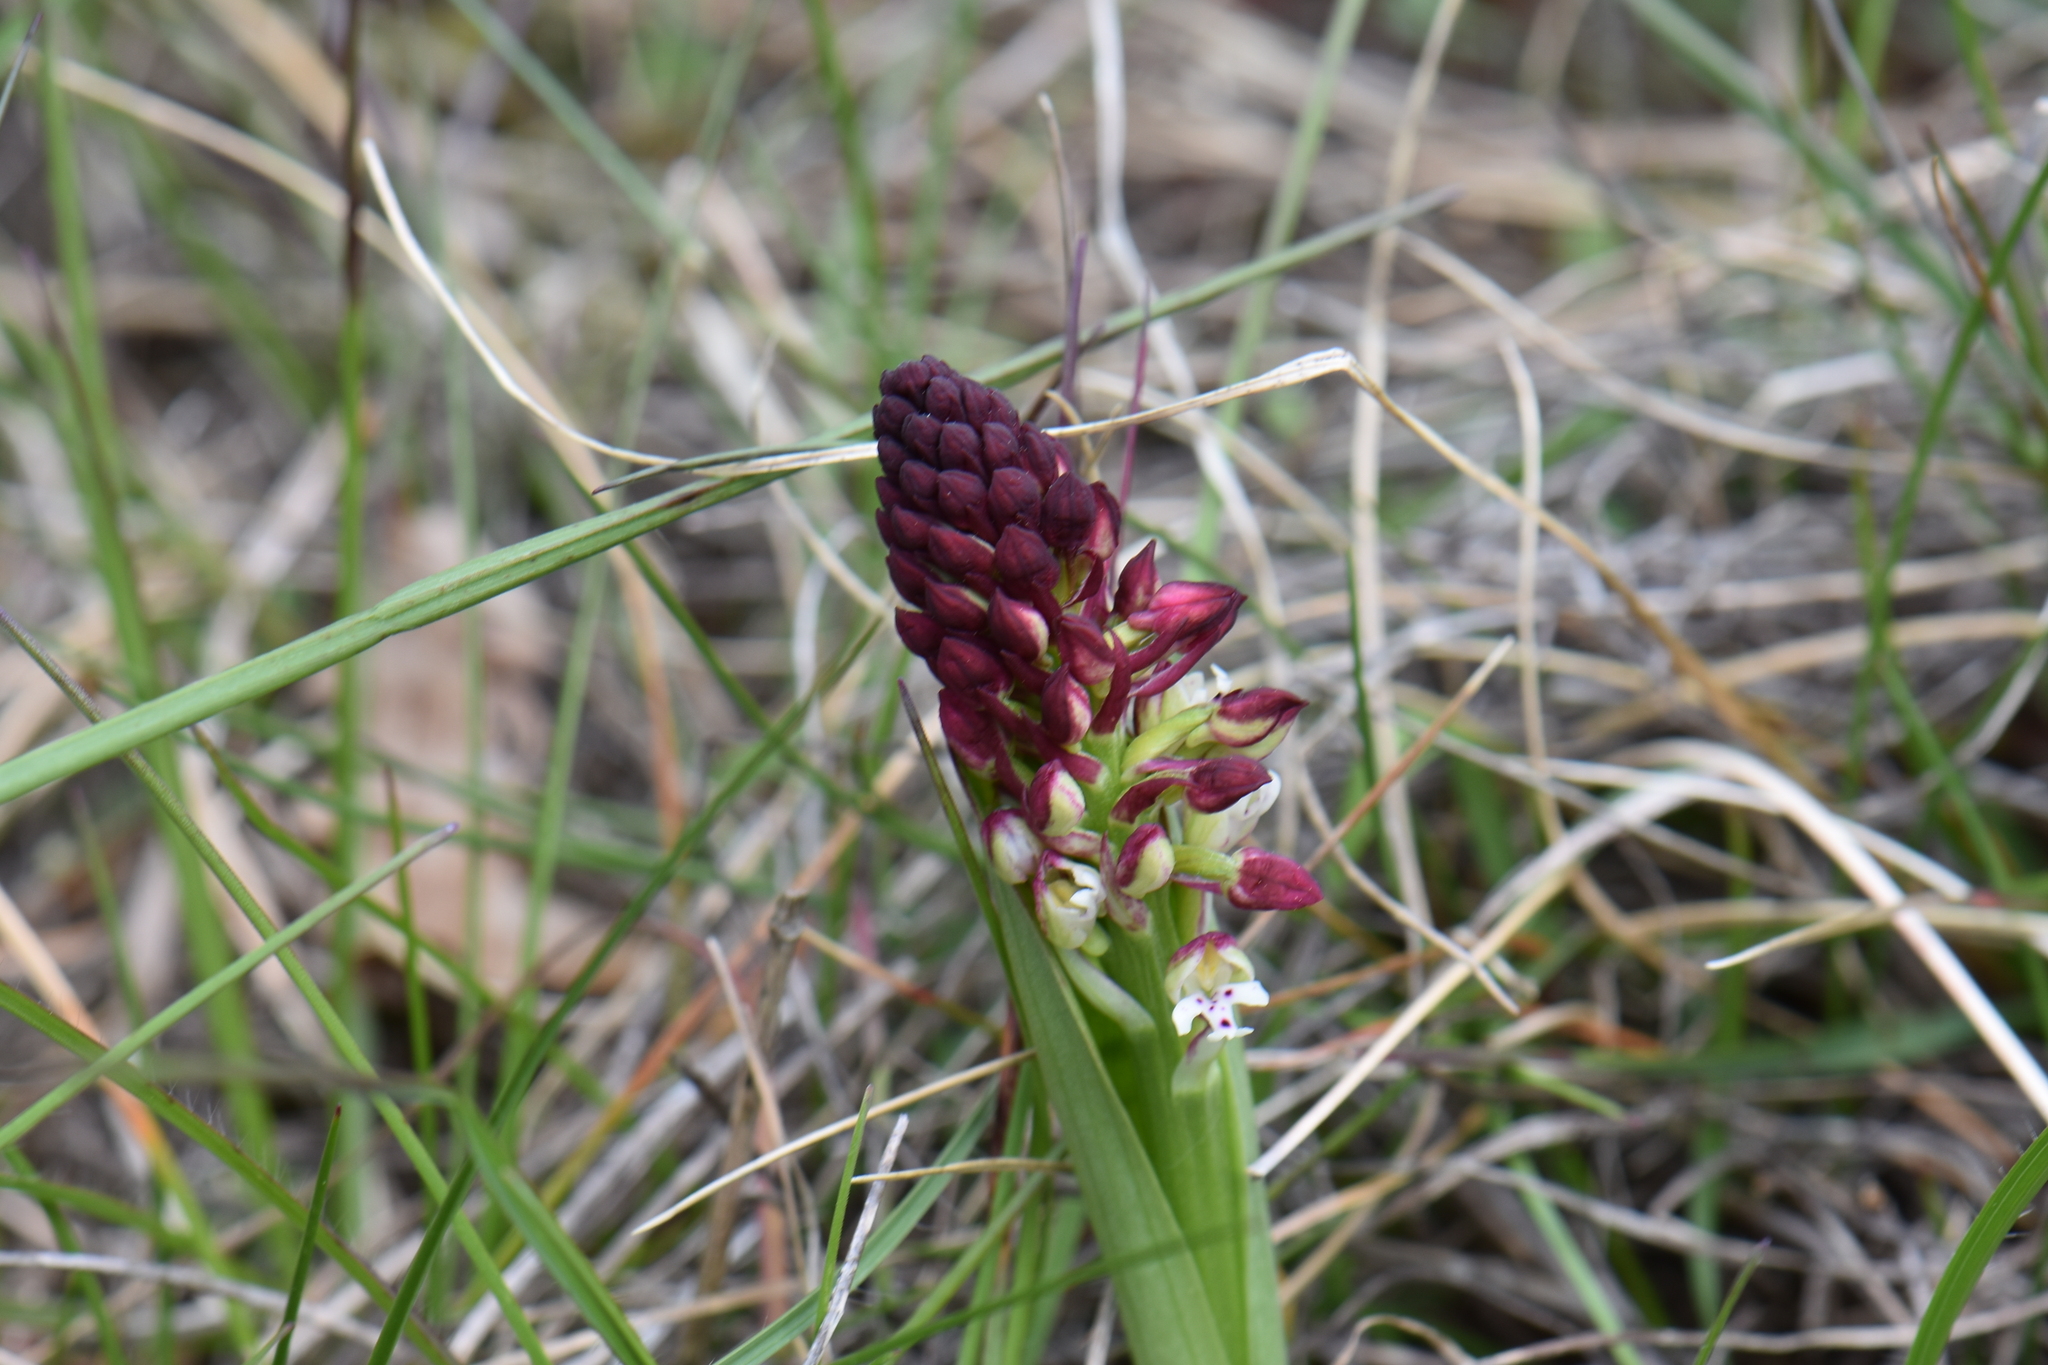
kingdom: Plantae
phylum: Tracheophyta
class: Liliopsida
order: Asparagales
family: Orchidaceae
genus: Neotinea
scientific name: Neotinea ustulata
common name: Burnt orchid
